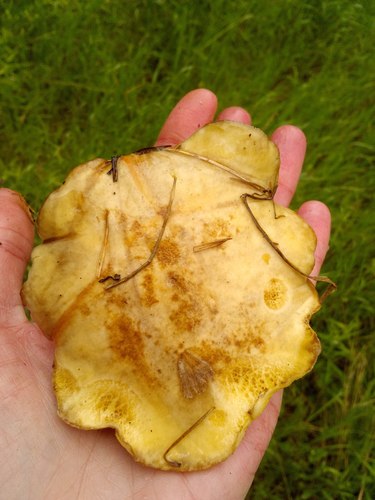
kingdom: Fungi
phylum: Basidiomycota
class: Agaricomycetes
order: Boletales
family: Suillaceae
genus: Suillus
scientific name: Suillus placidus
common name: Slippery white bolete
